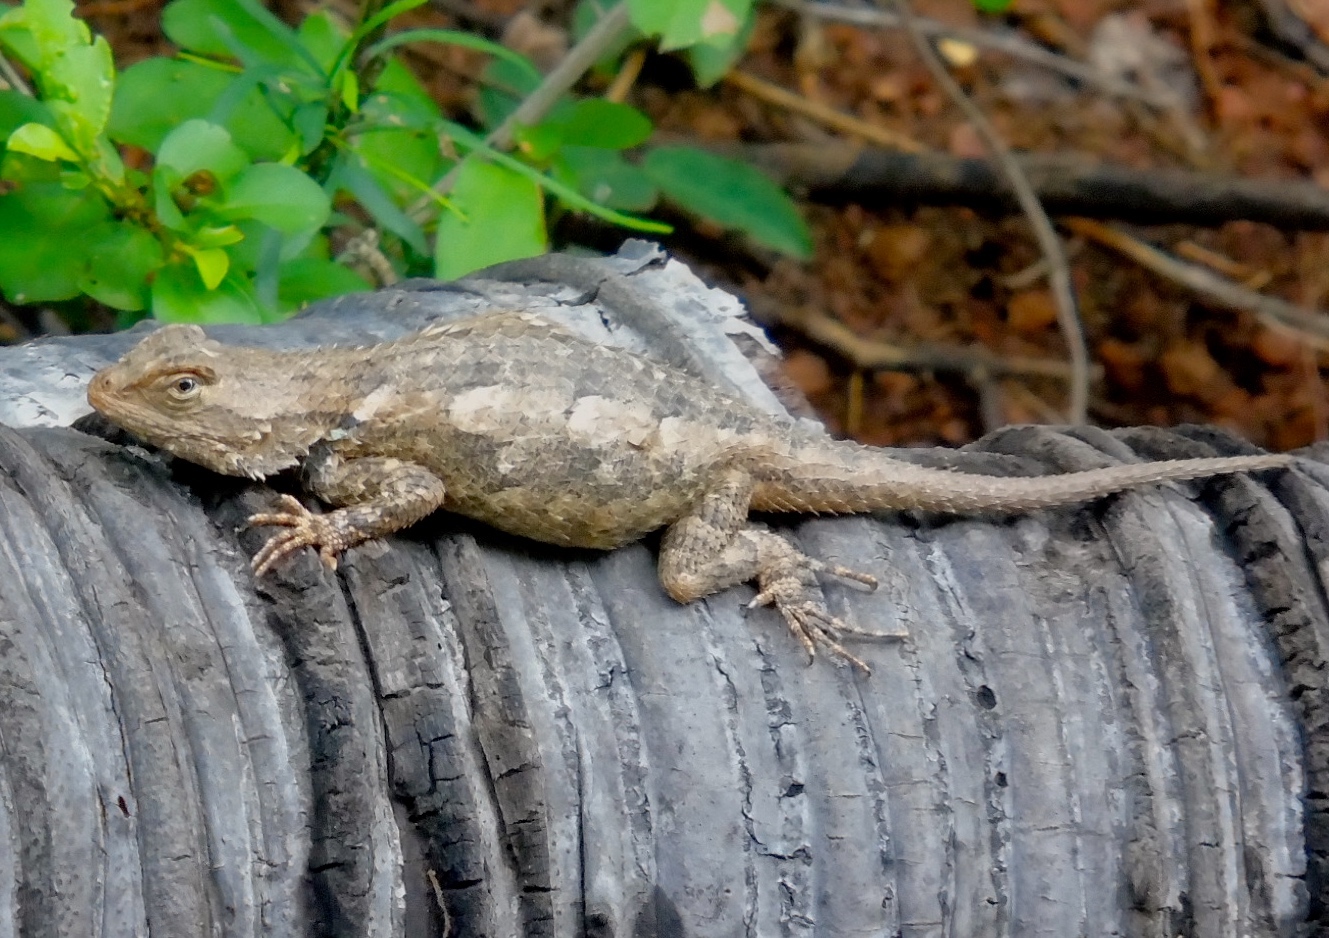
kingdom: Animalia
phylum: Chordata
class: Squamata
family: Phrynosomatidae
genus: Sceloporus
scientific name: Sceloporus clarkii
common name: Clark's spiny lizard
